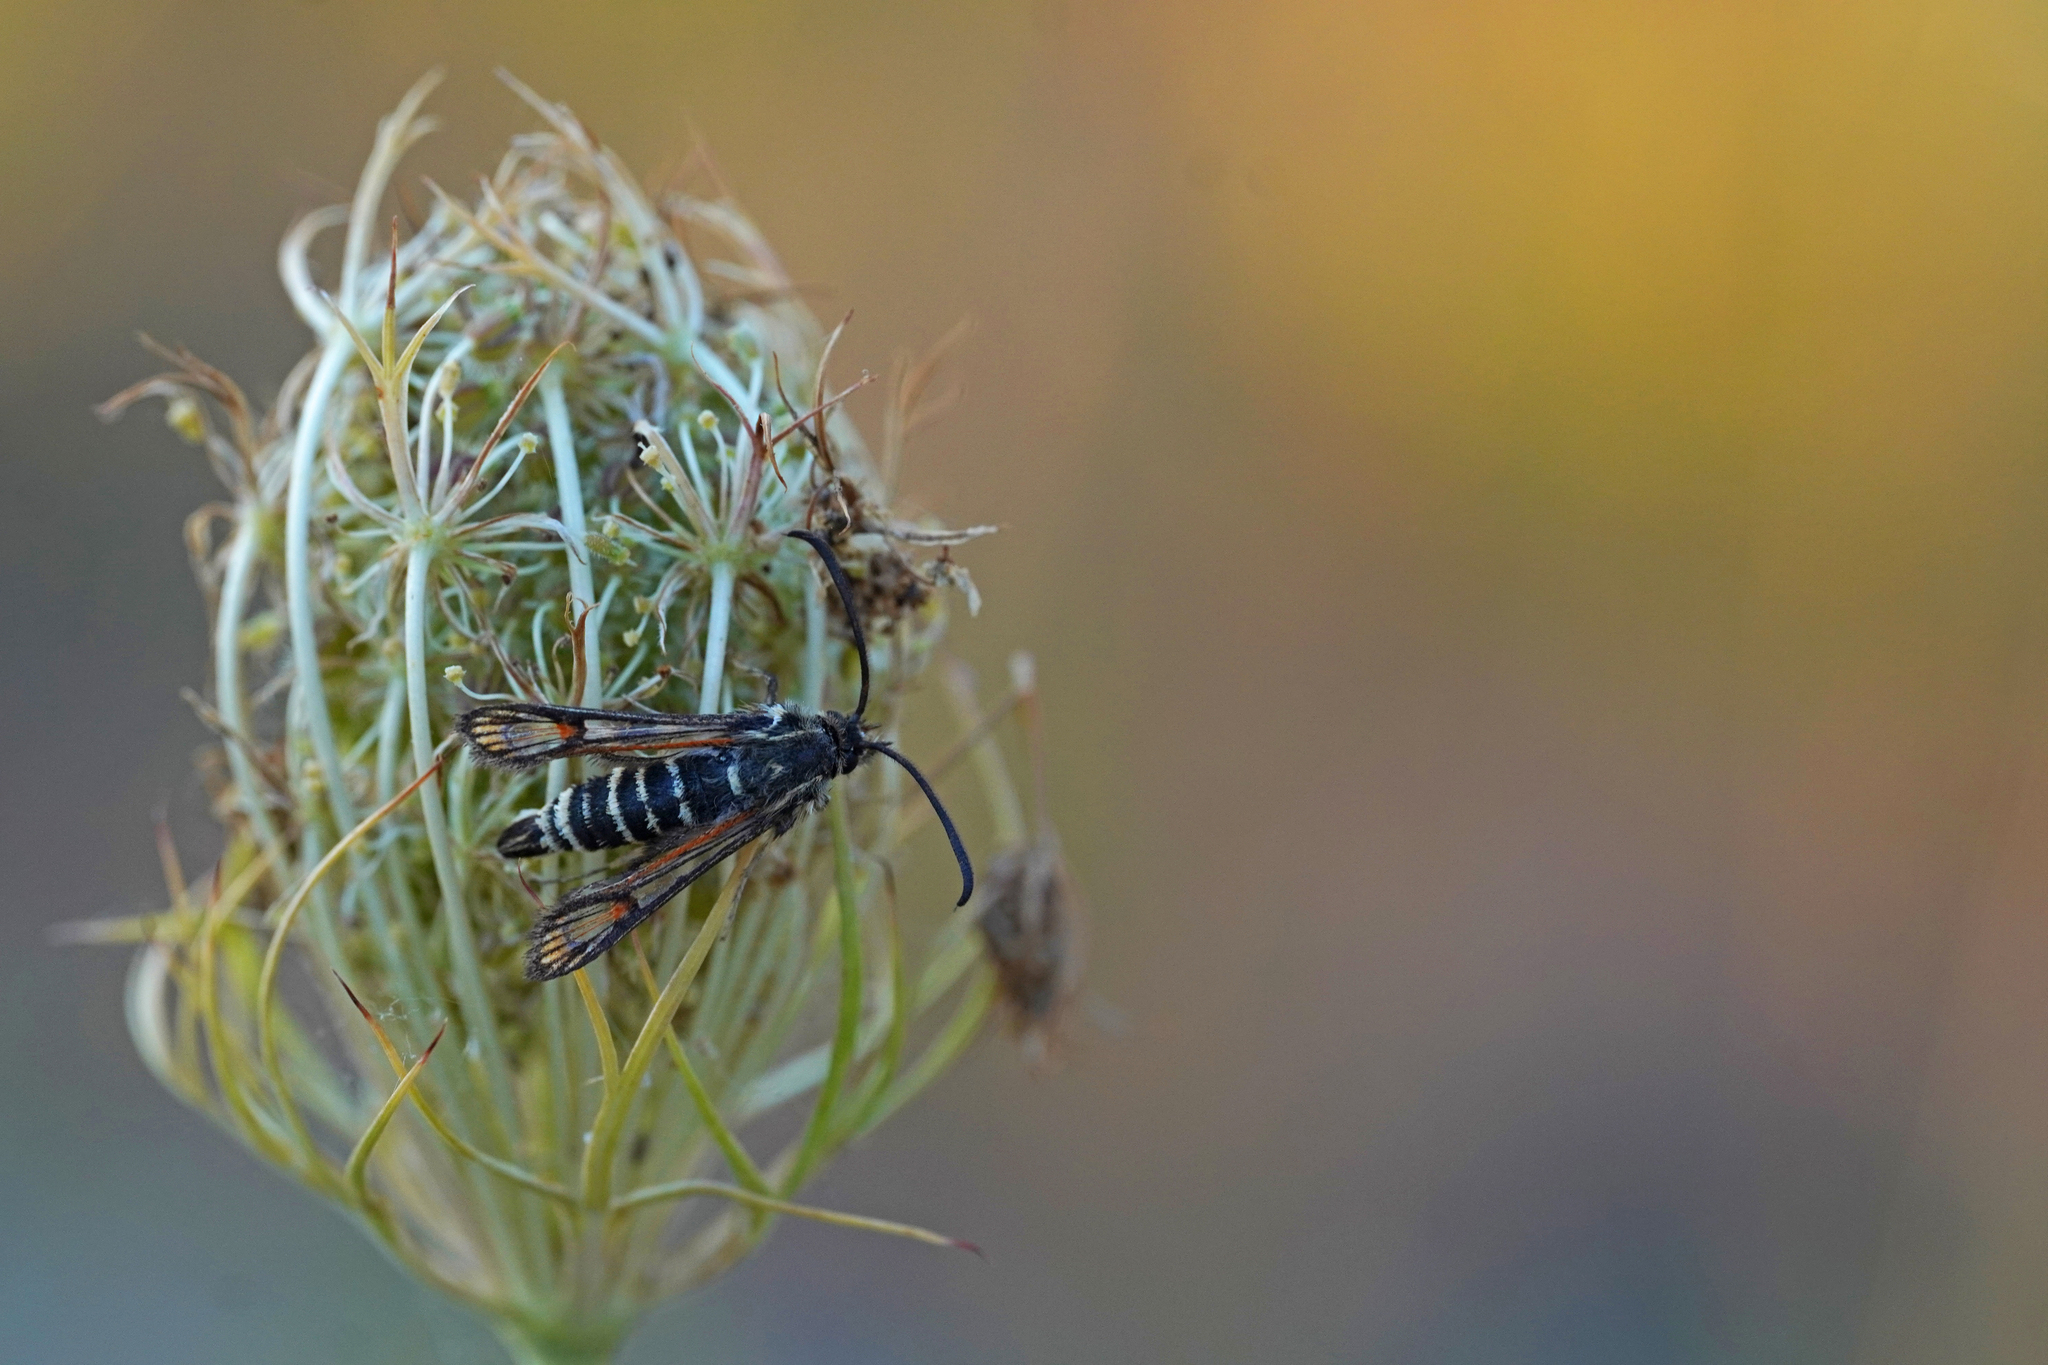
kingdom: Animalia
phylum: Arthropoda
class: Insecta
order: Lepidoptera
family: Sesiidae
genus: Bembecia
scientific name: Bembecia ichneumoniformis
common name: Six-belted clearwing
